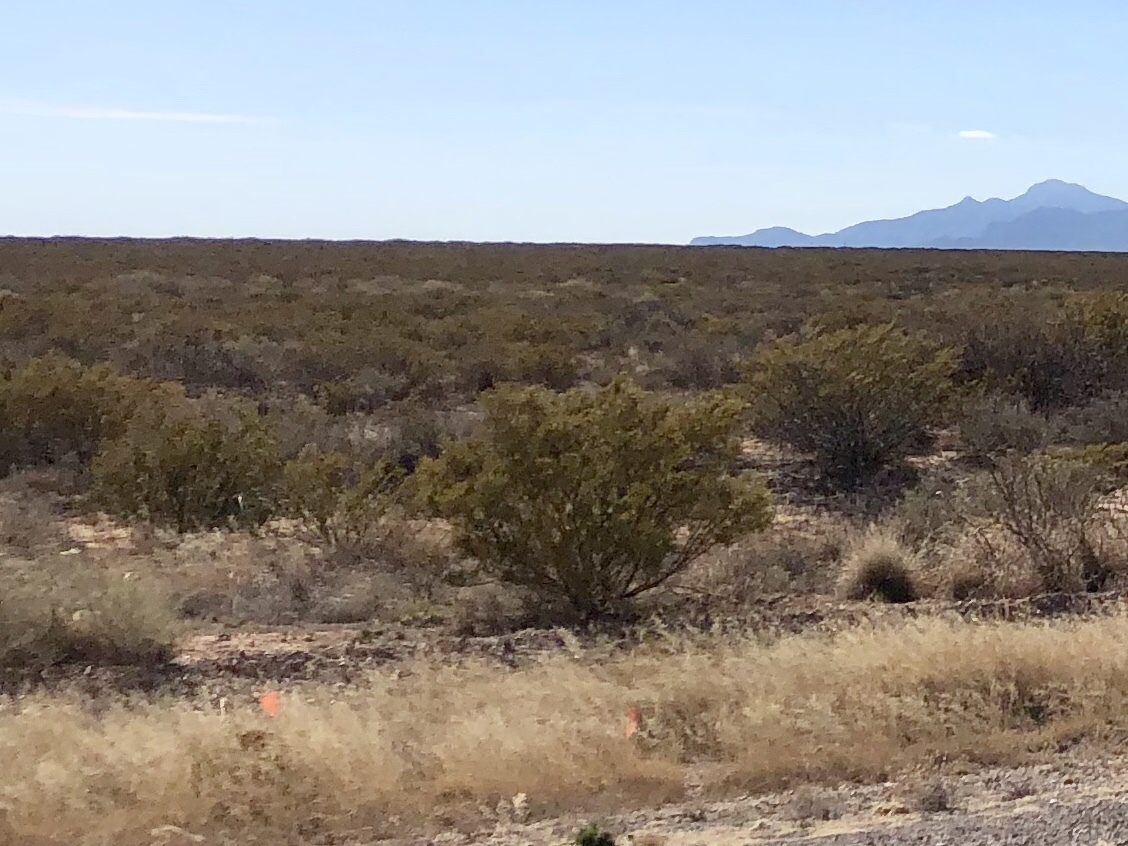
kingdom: Plantae
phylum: Tracheophyta
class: Magnoliopsida
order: Zygophyllales
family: Zygophyllaceae
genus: Larrea
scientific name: Larrea tridentata
